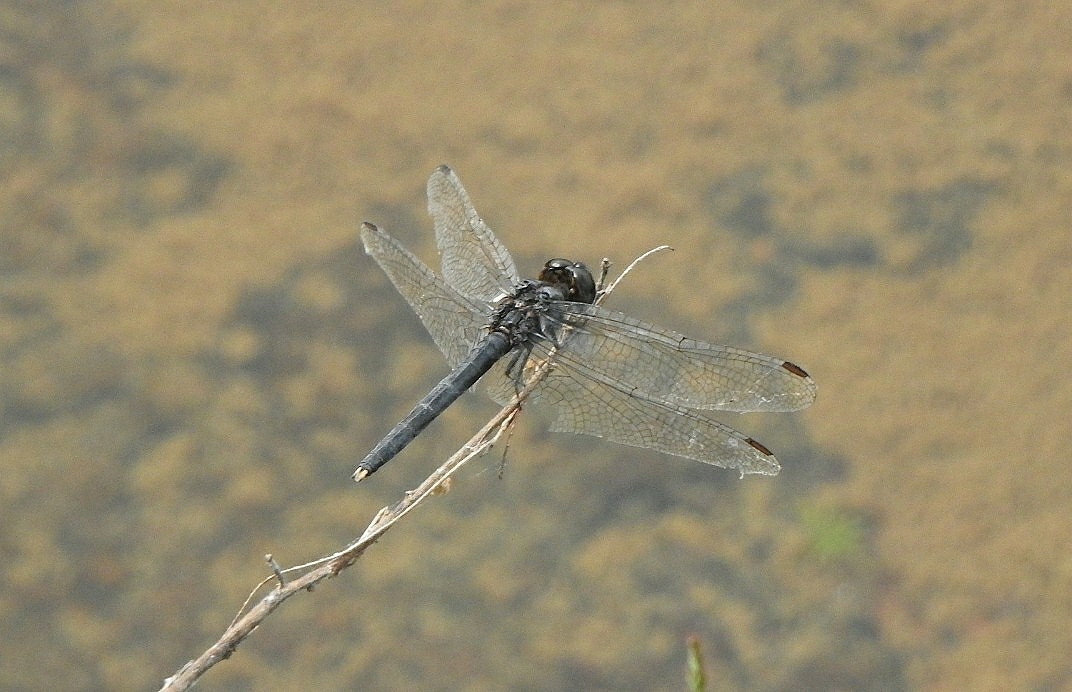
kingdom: Animalia
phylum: Arthropoda
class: Insecta
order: Odonata
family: Libellulidae
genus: Indothemis
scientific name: Indothemis carnatica
